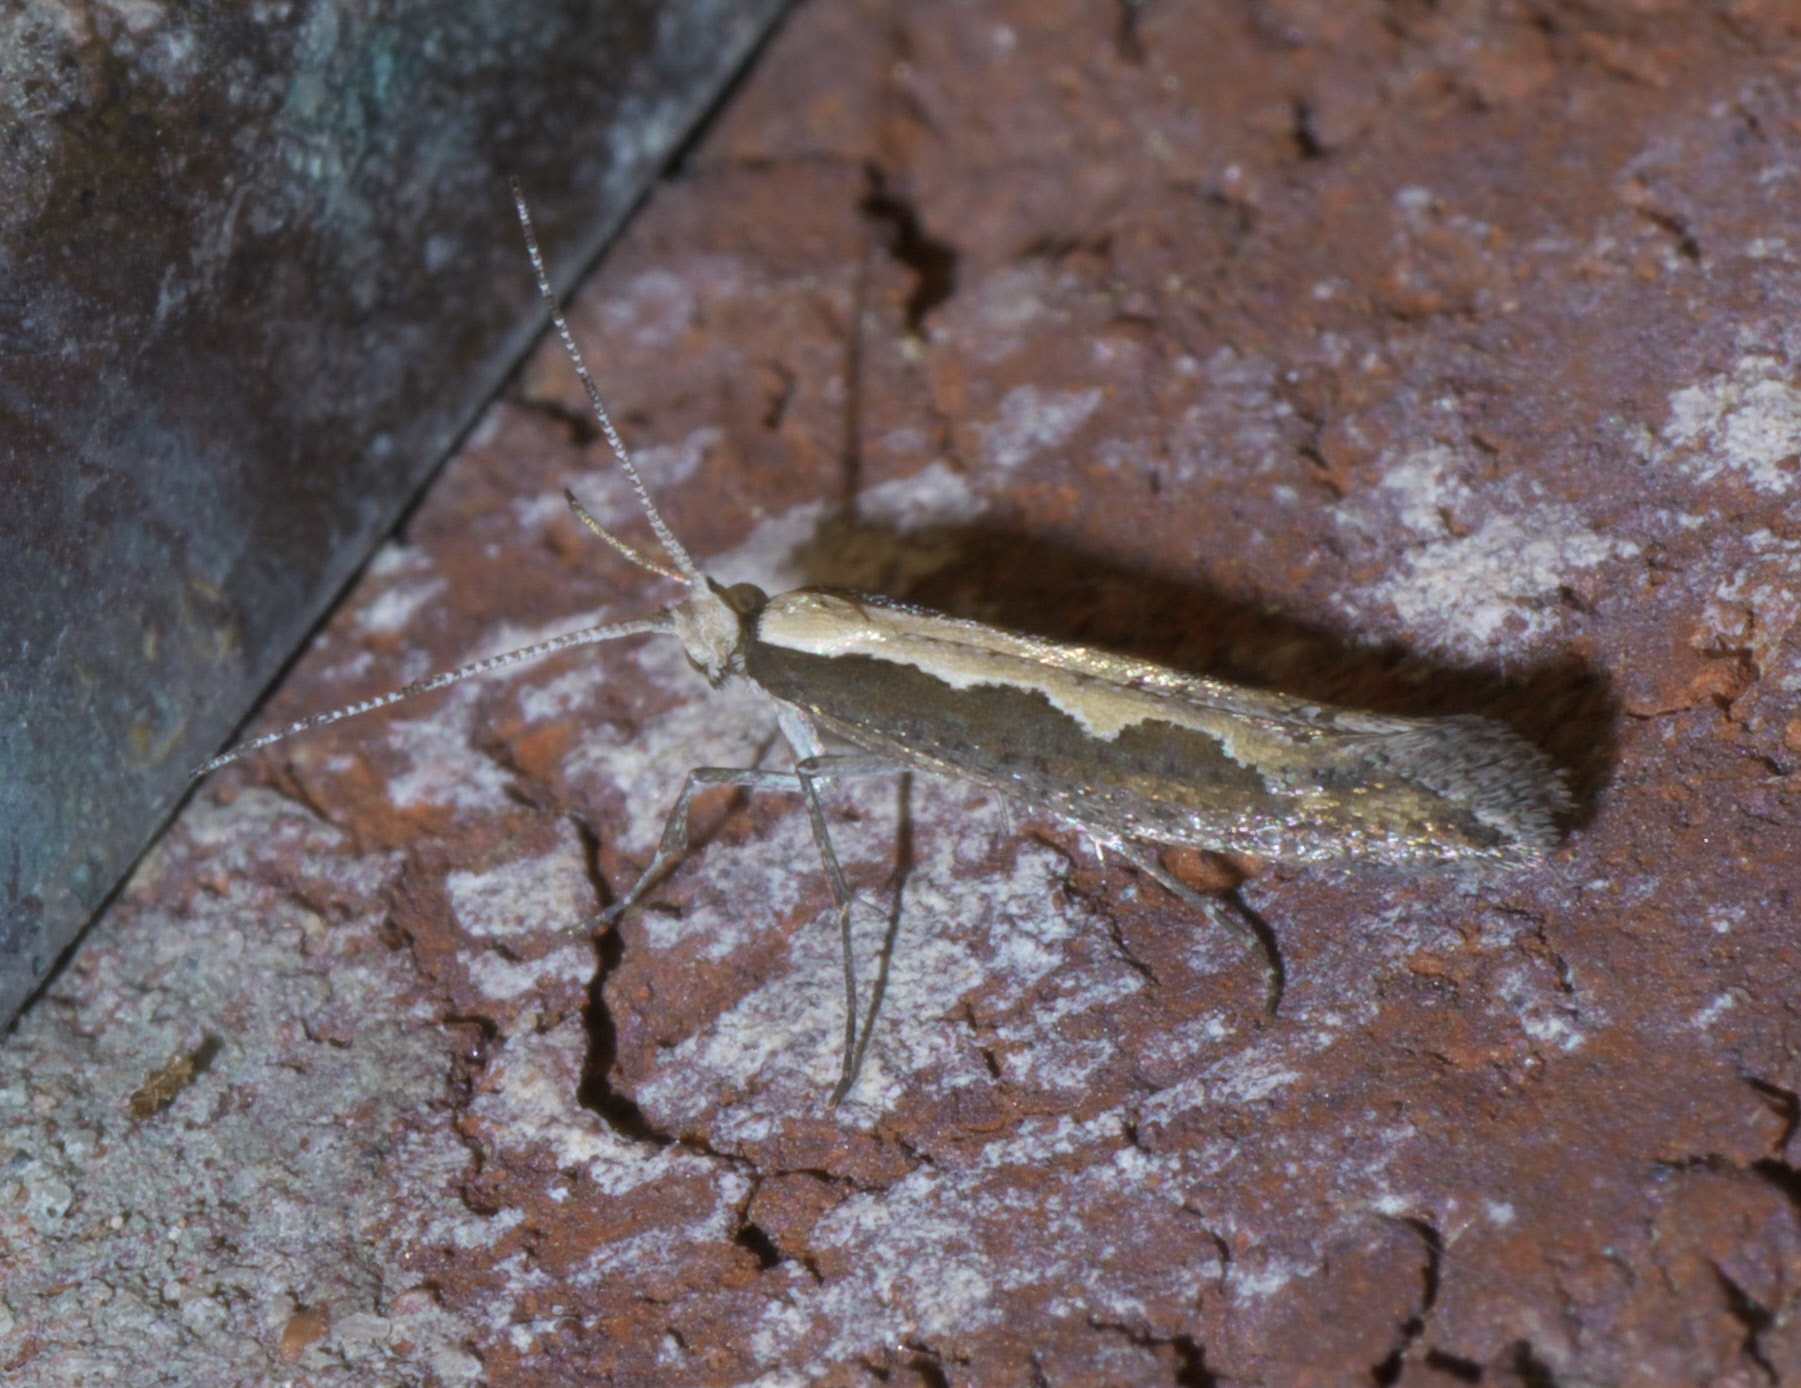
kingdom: Animalia
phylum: Arthropoda
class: Insecta
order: Lepidoptera
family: Plutellidae
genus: Plutella
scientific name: Plutella xylostella
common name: Diamond-back moth
